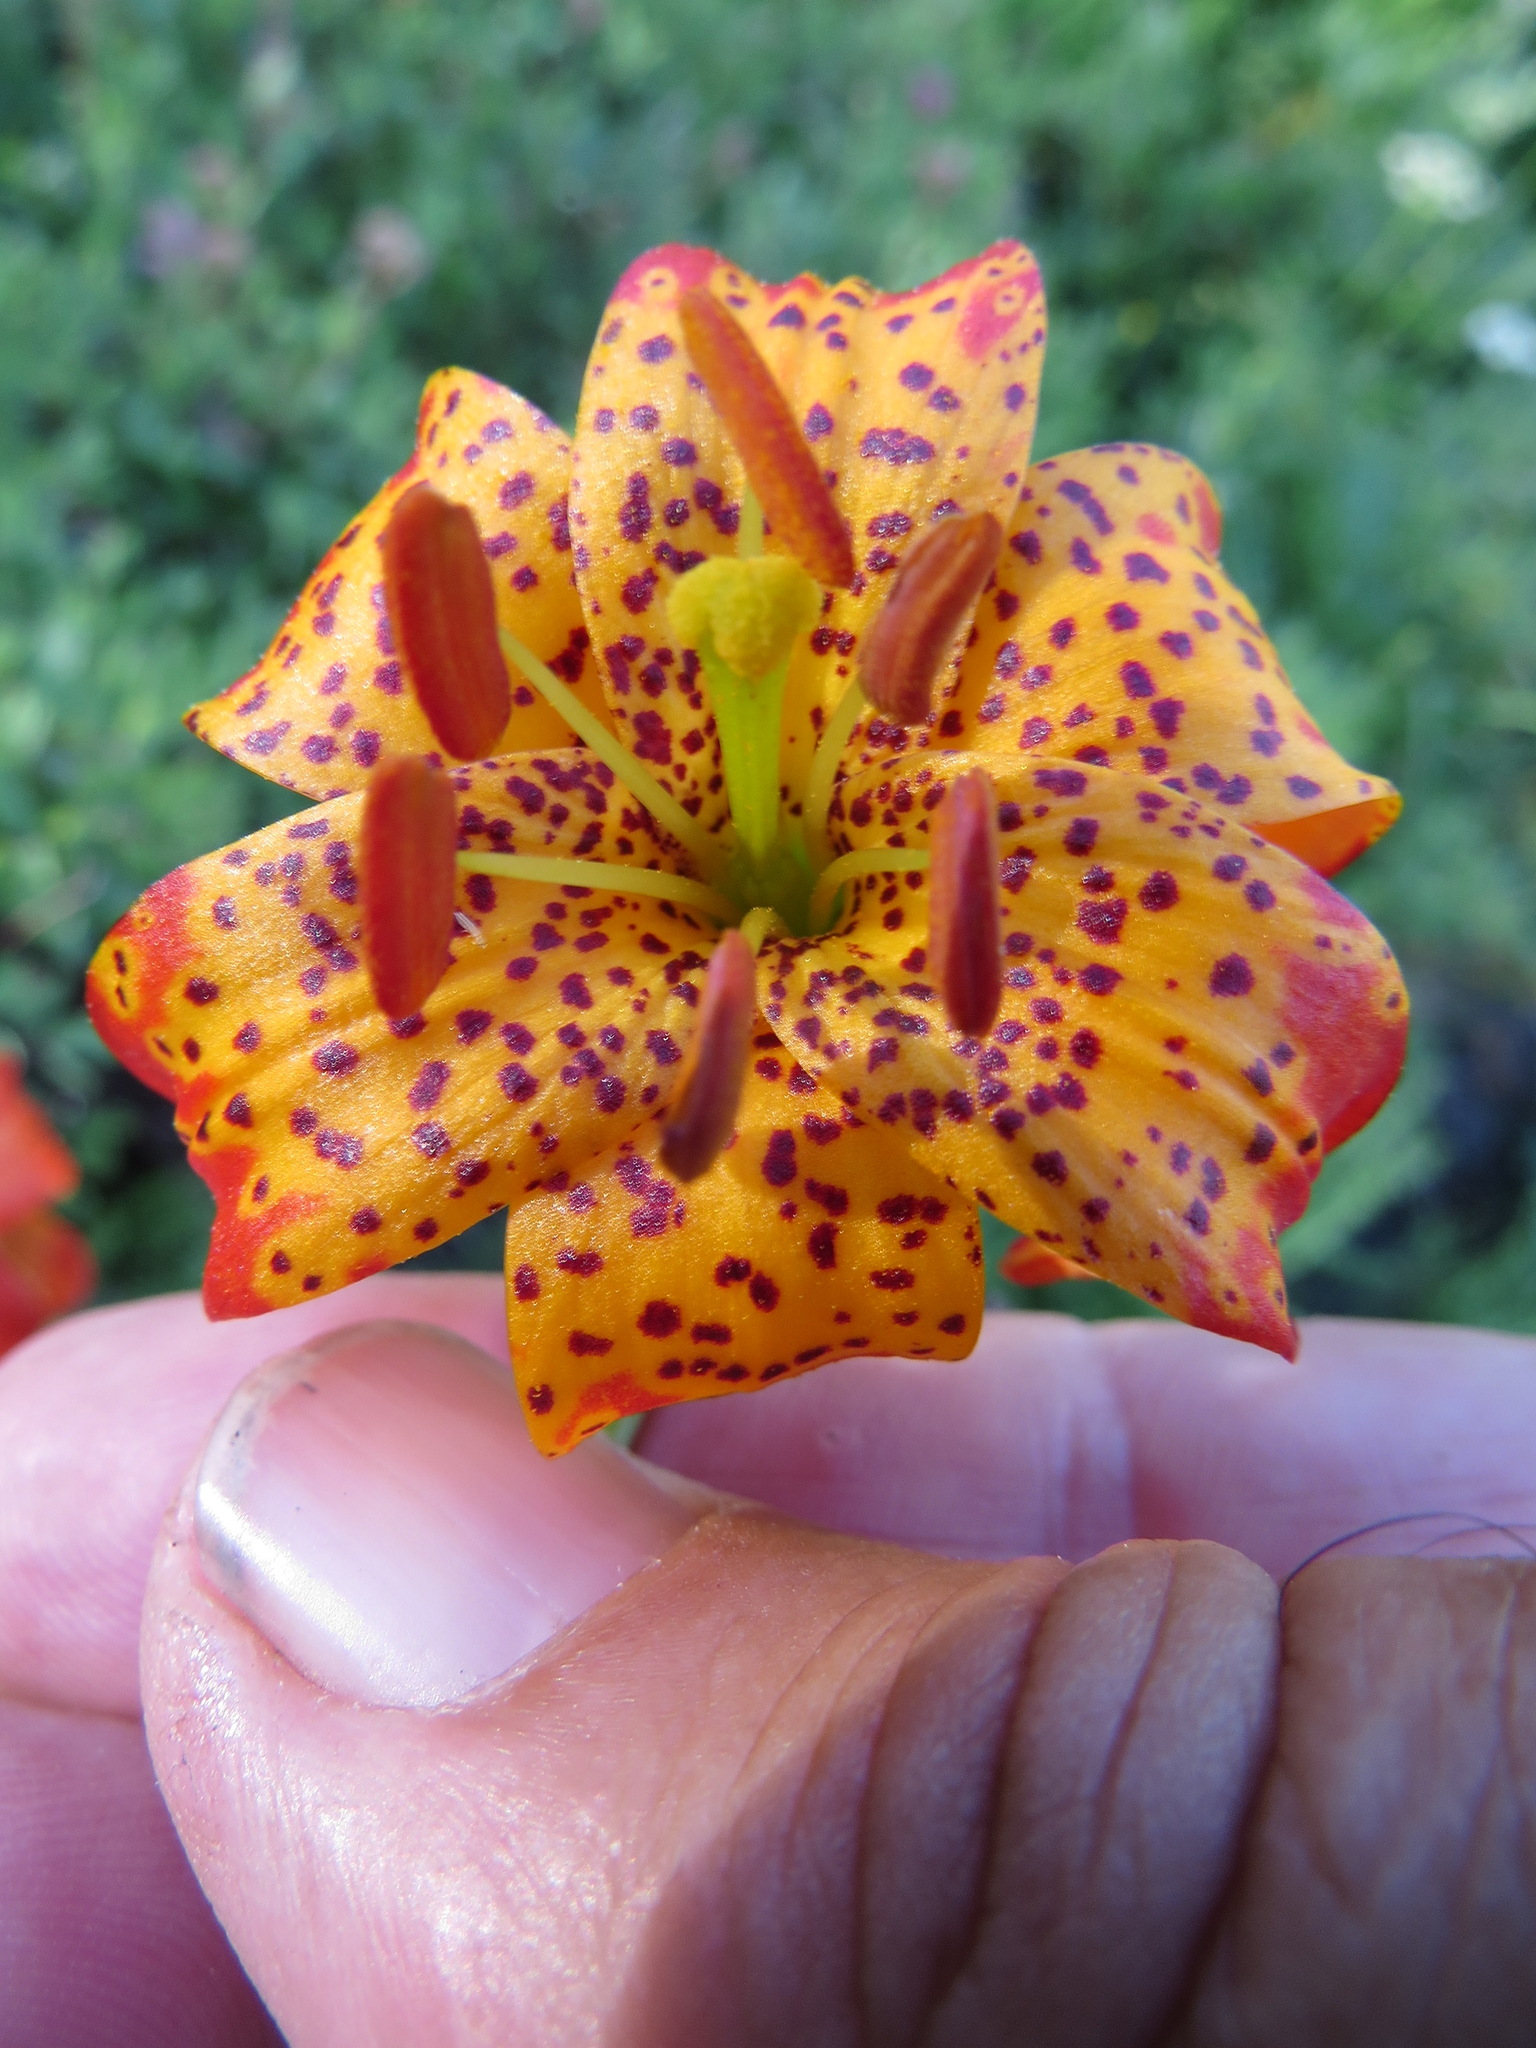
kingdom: Plantae
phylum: Tracheophyta
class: Liliopsida
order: Liliales
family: Liliaceae
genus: Lilium
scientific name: Lilium pardalinum
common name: Panther lily
